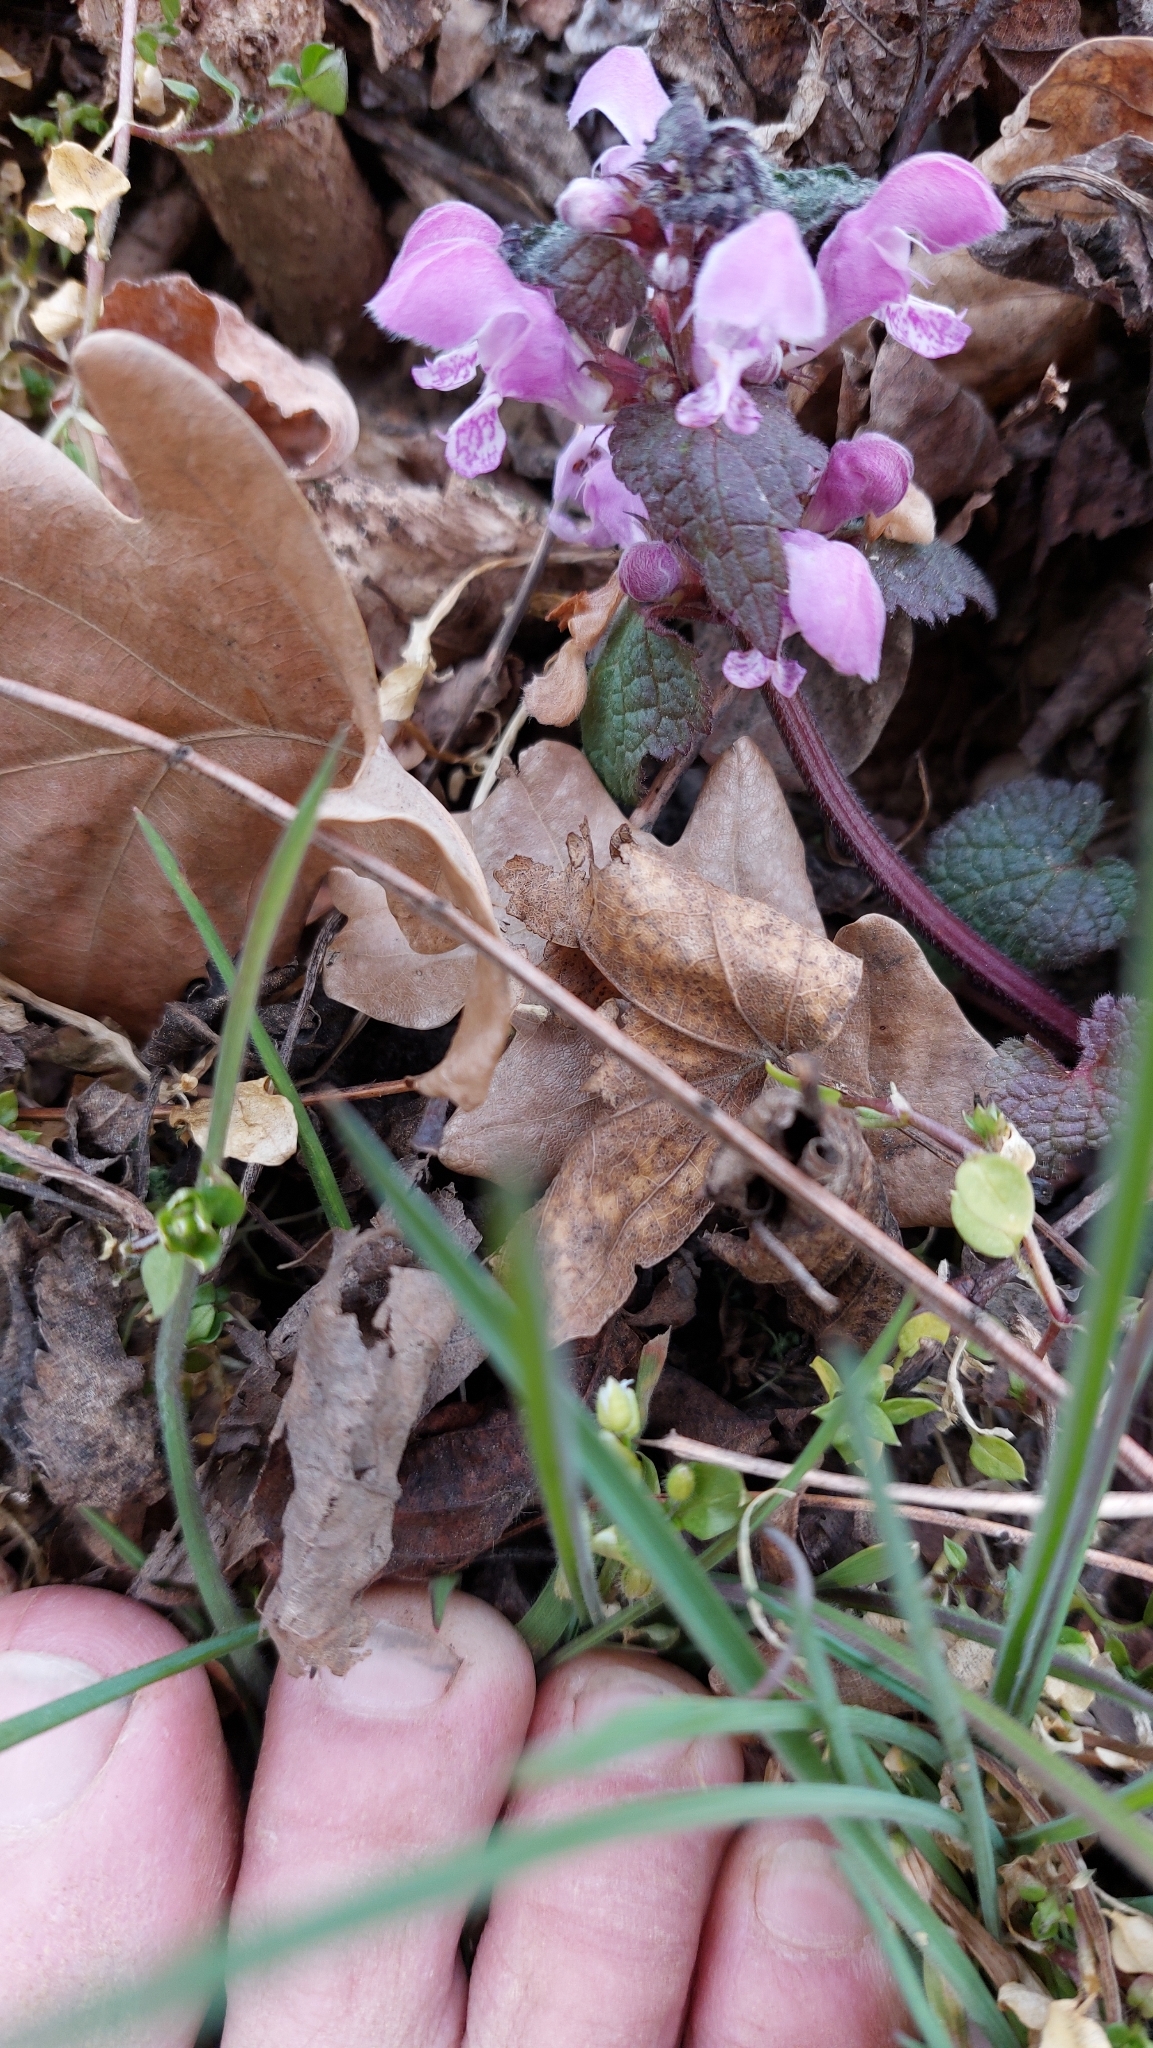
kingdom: Plantae
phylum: Tracheophyta
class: Magnoliopsida
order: Lamiales
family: Lamiaceae
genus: Lamium
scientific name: Lamium maculatum
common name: Spotted dead-nettle
